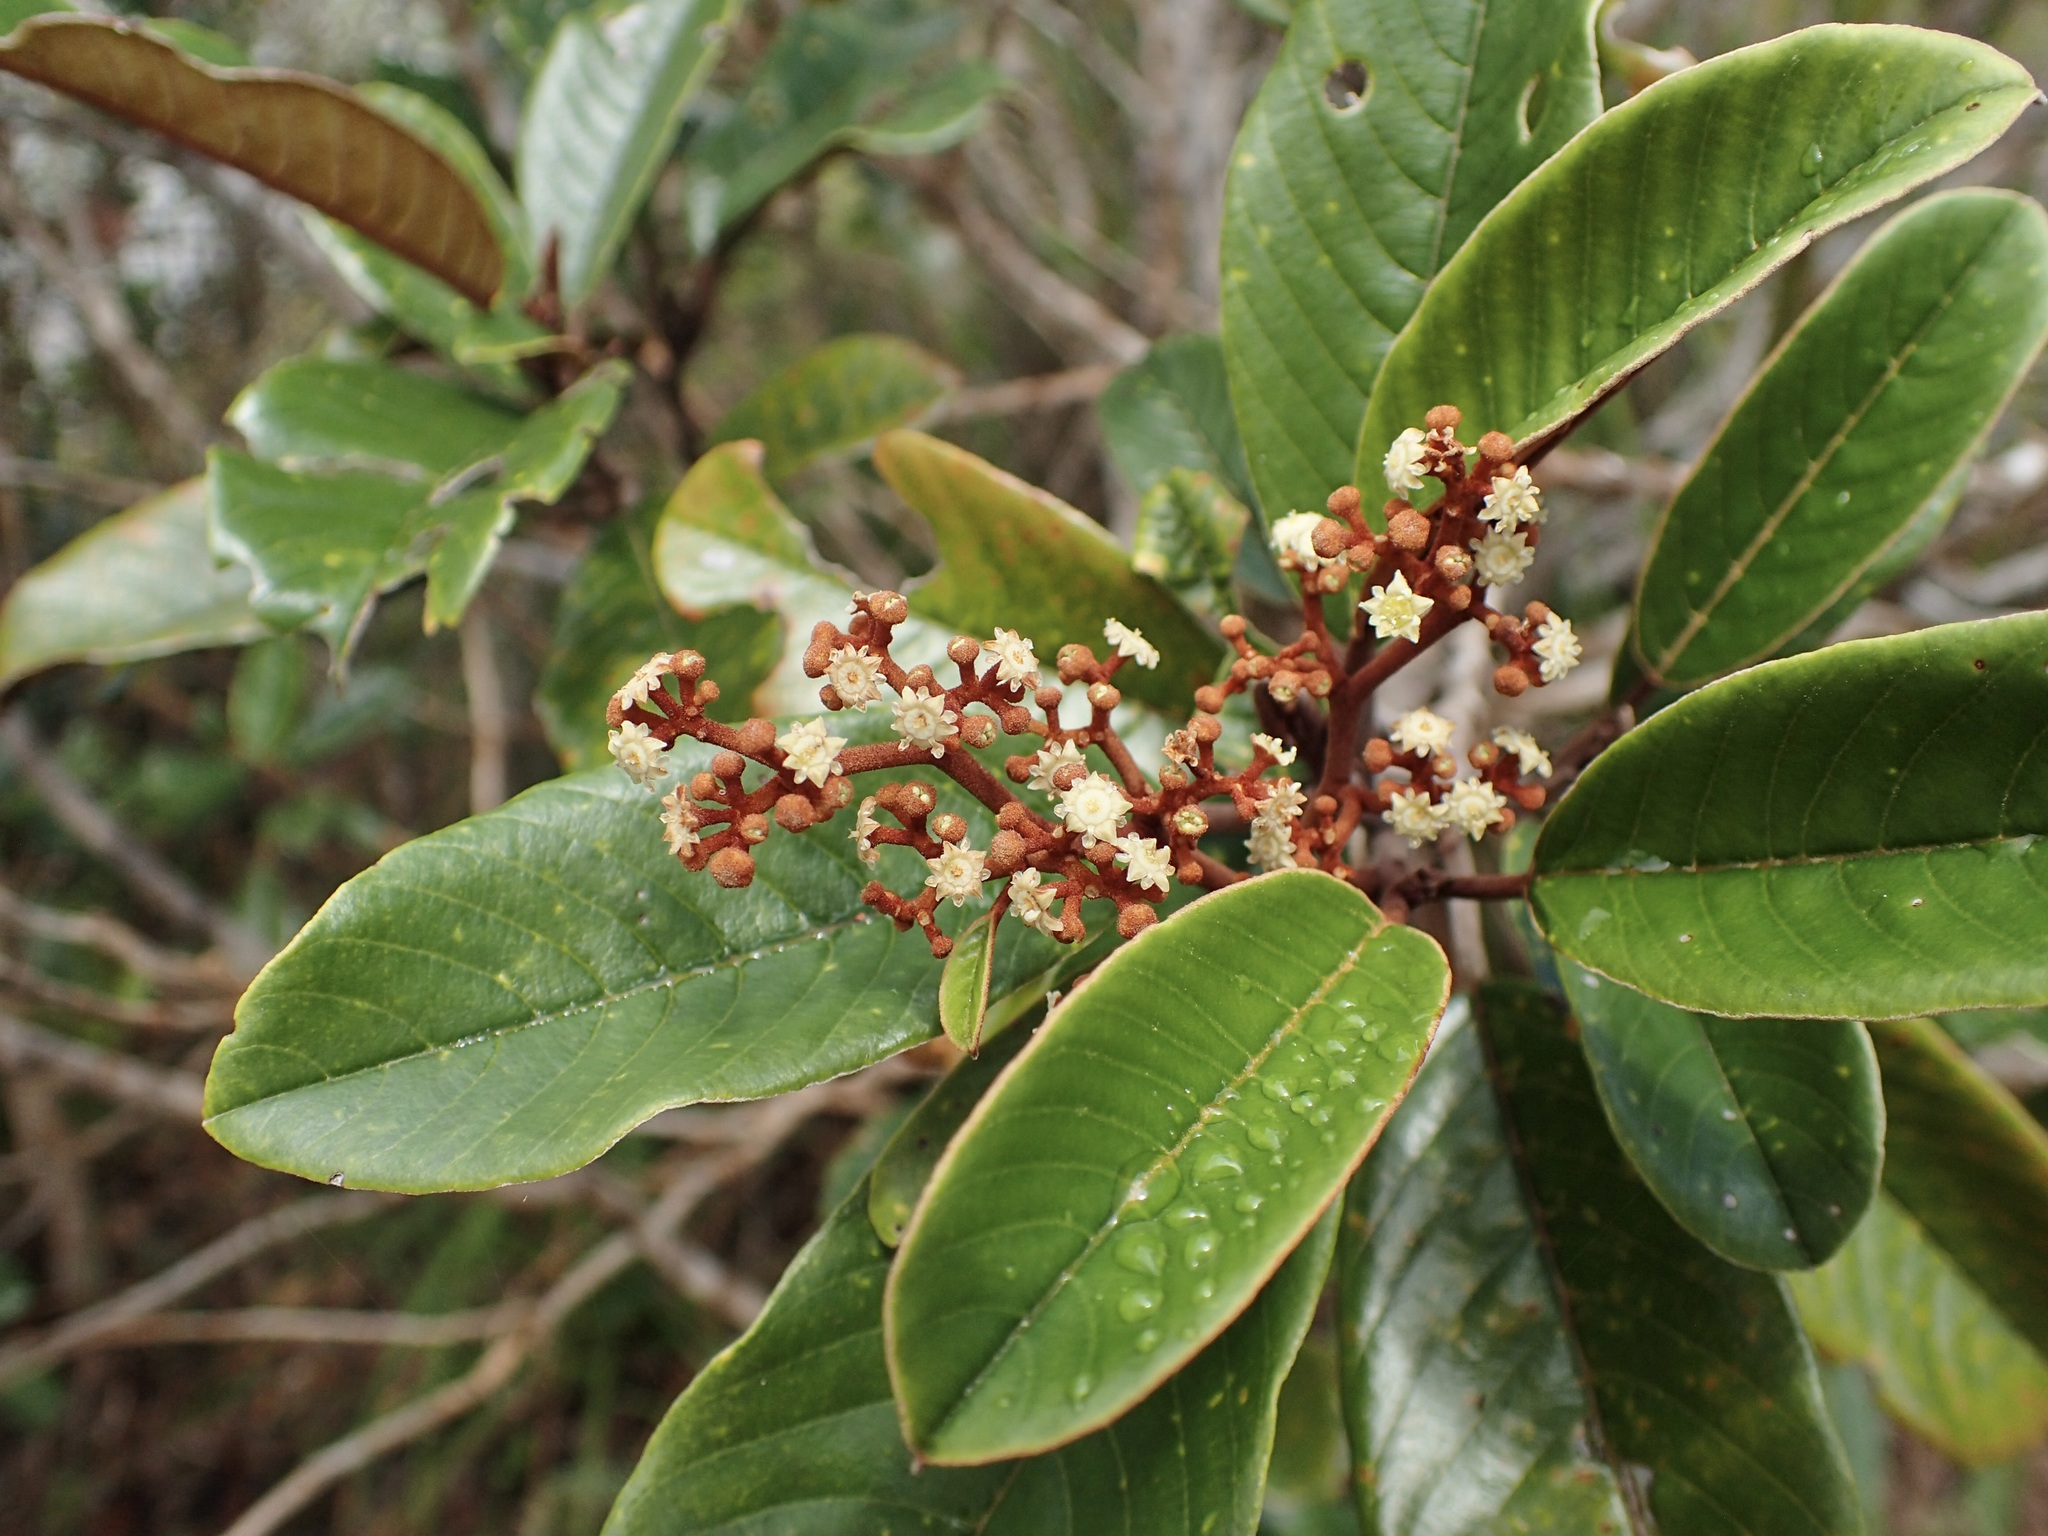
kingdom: Plantae
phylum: Tracheophyta
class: Magnoliopsida
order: Rosales
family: Rhamnaceae
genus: Alphitonia
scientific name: Alphitonia neocaledonica
